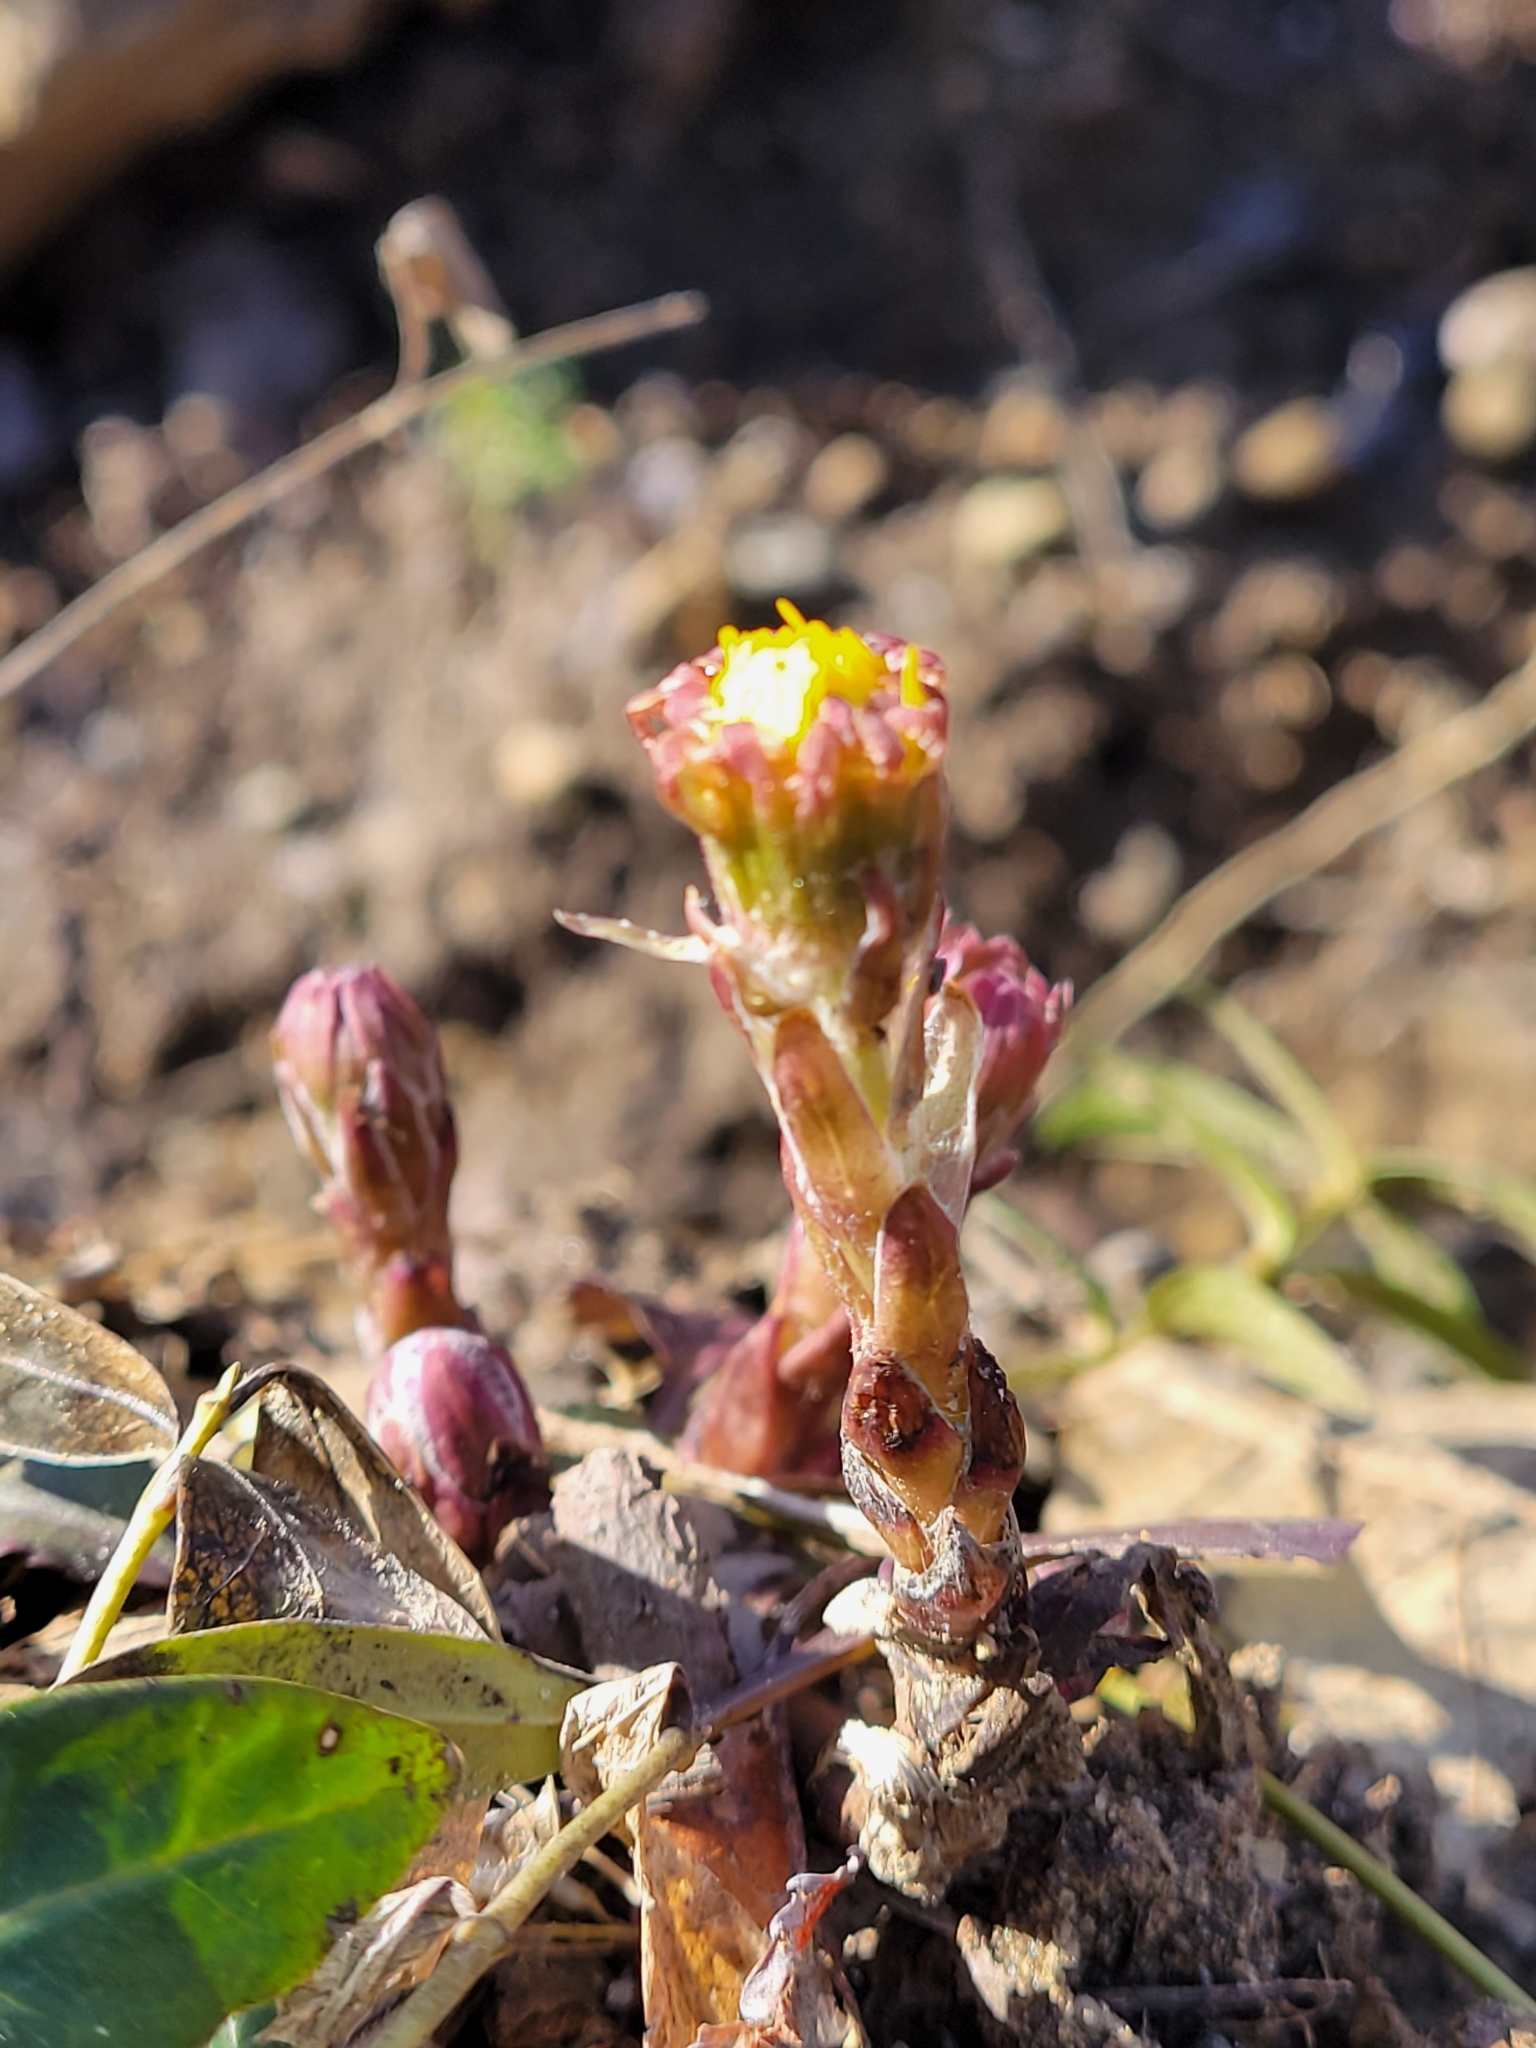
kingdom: Plantae
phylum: Tracheophyta
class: Magnoliopsida
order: Asterales
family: Asteraceae
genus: Tussilago
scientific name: Tussilago farfara
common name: Coltsfoot
